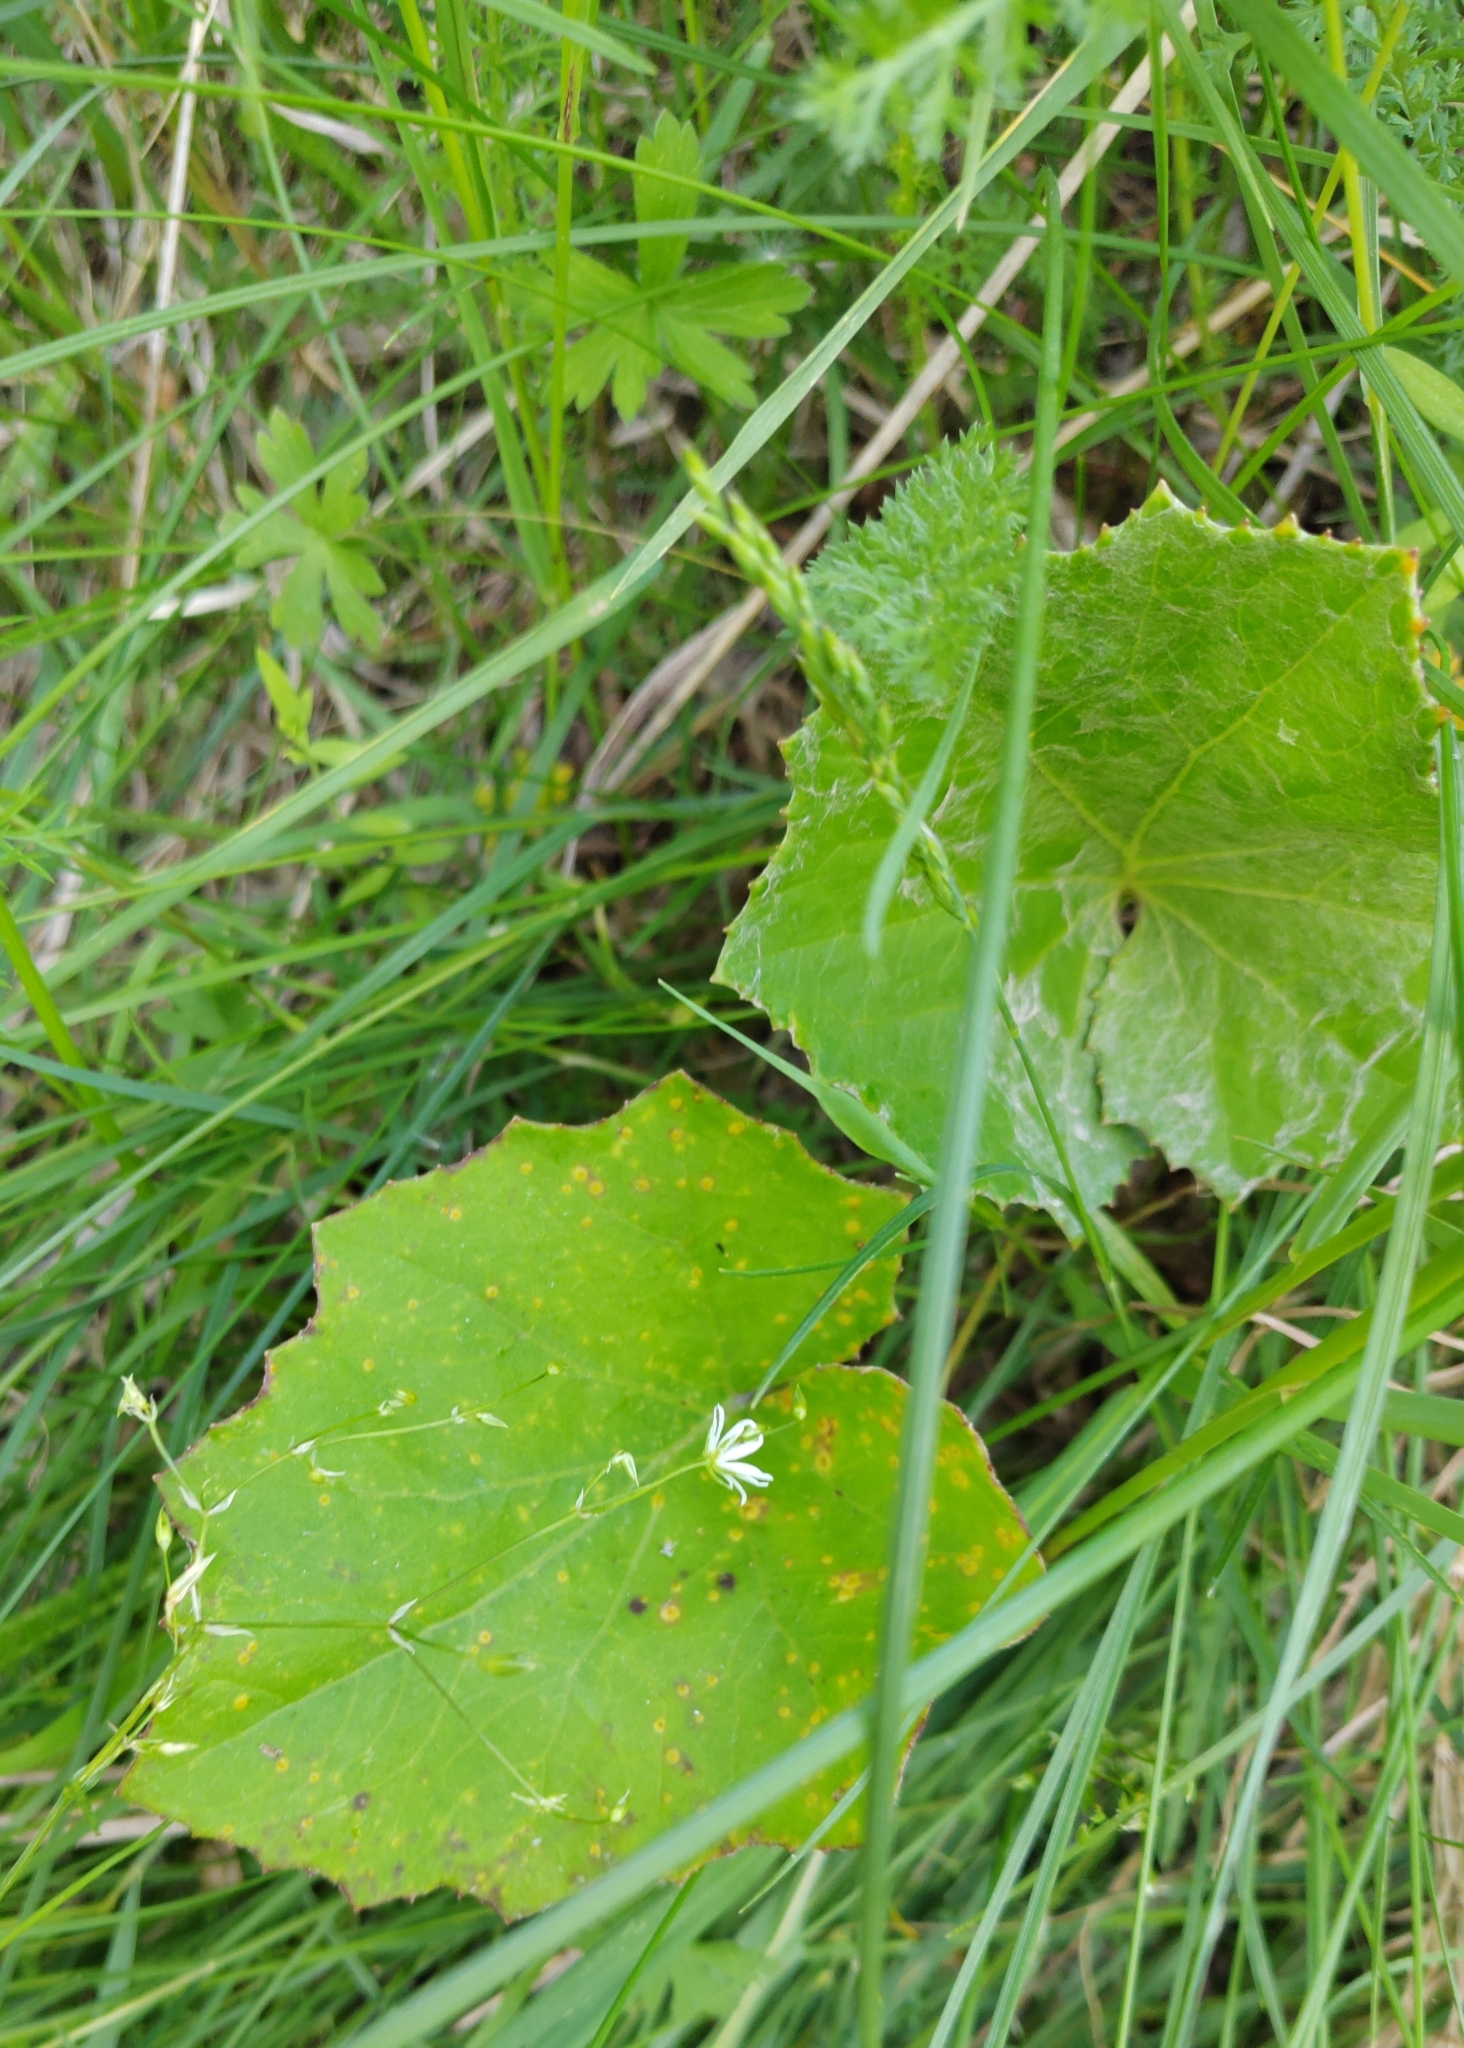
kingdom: Plantae
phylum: Tracheophyta
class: Magnoliopsida
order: Asterales
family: Asteraceae
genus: Tussilago
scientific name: Tussilago farfara
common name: Coltsfoot
